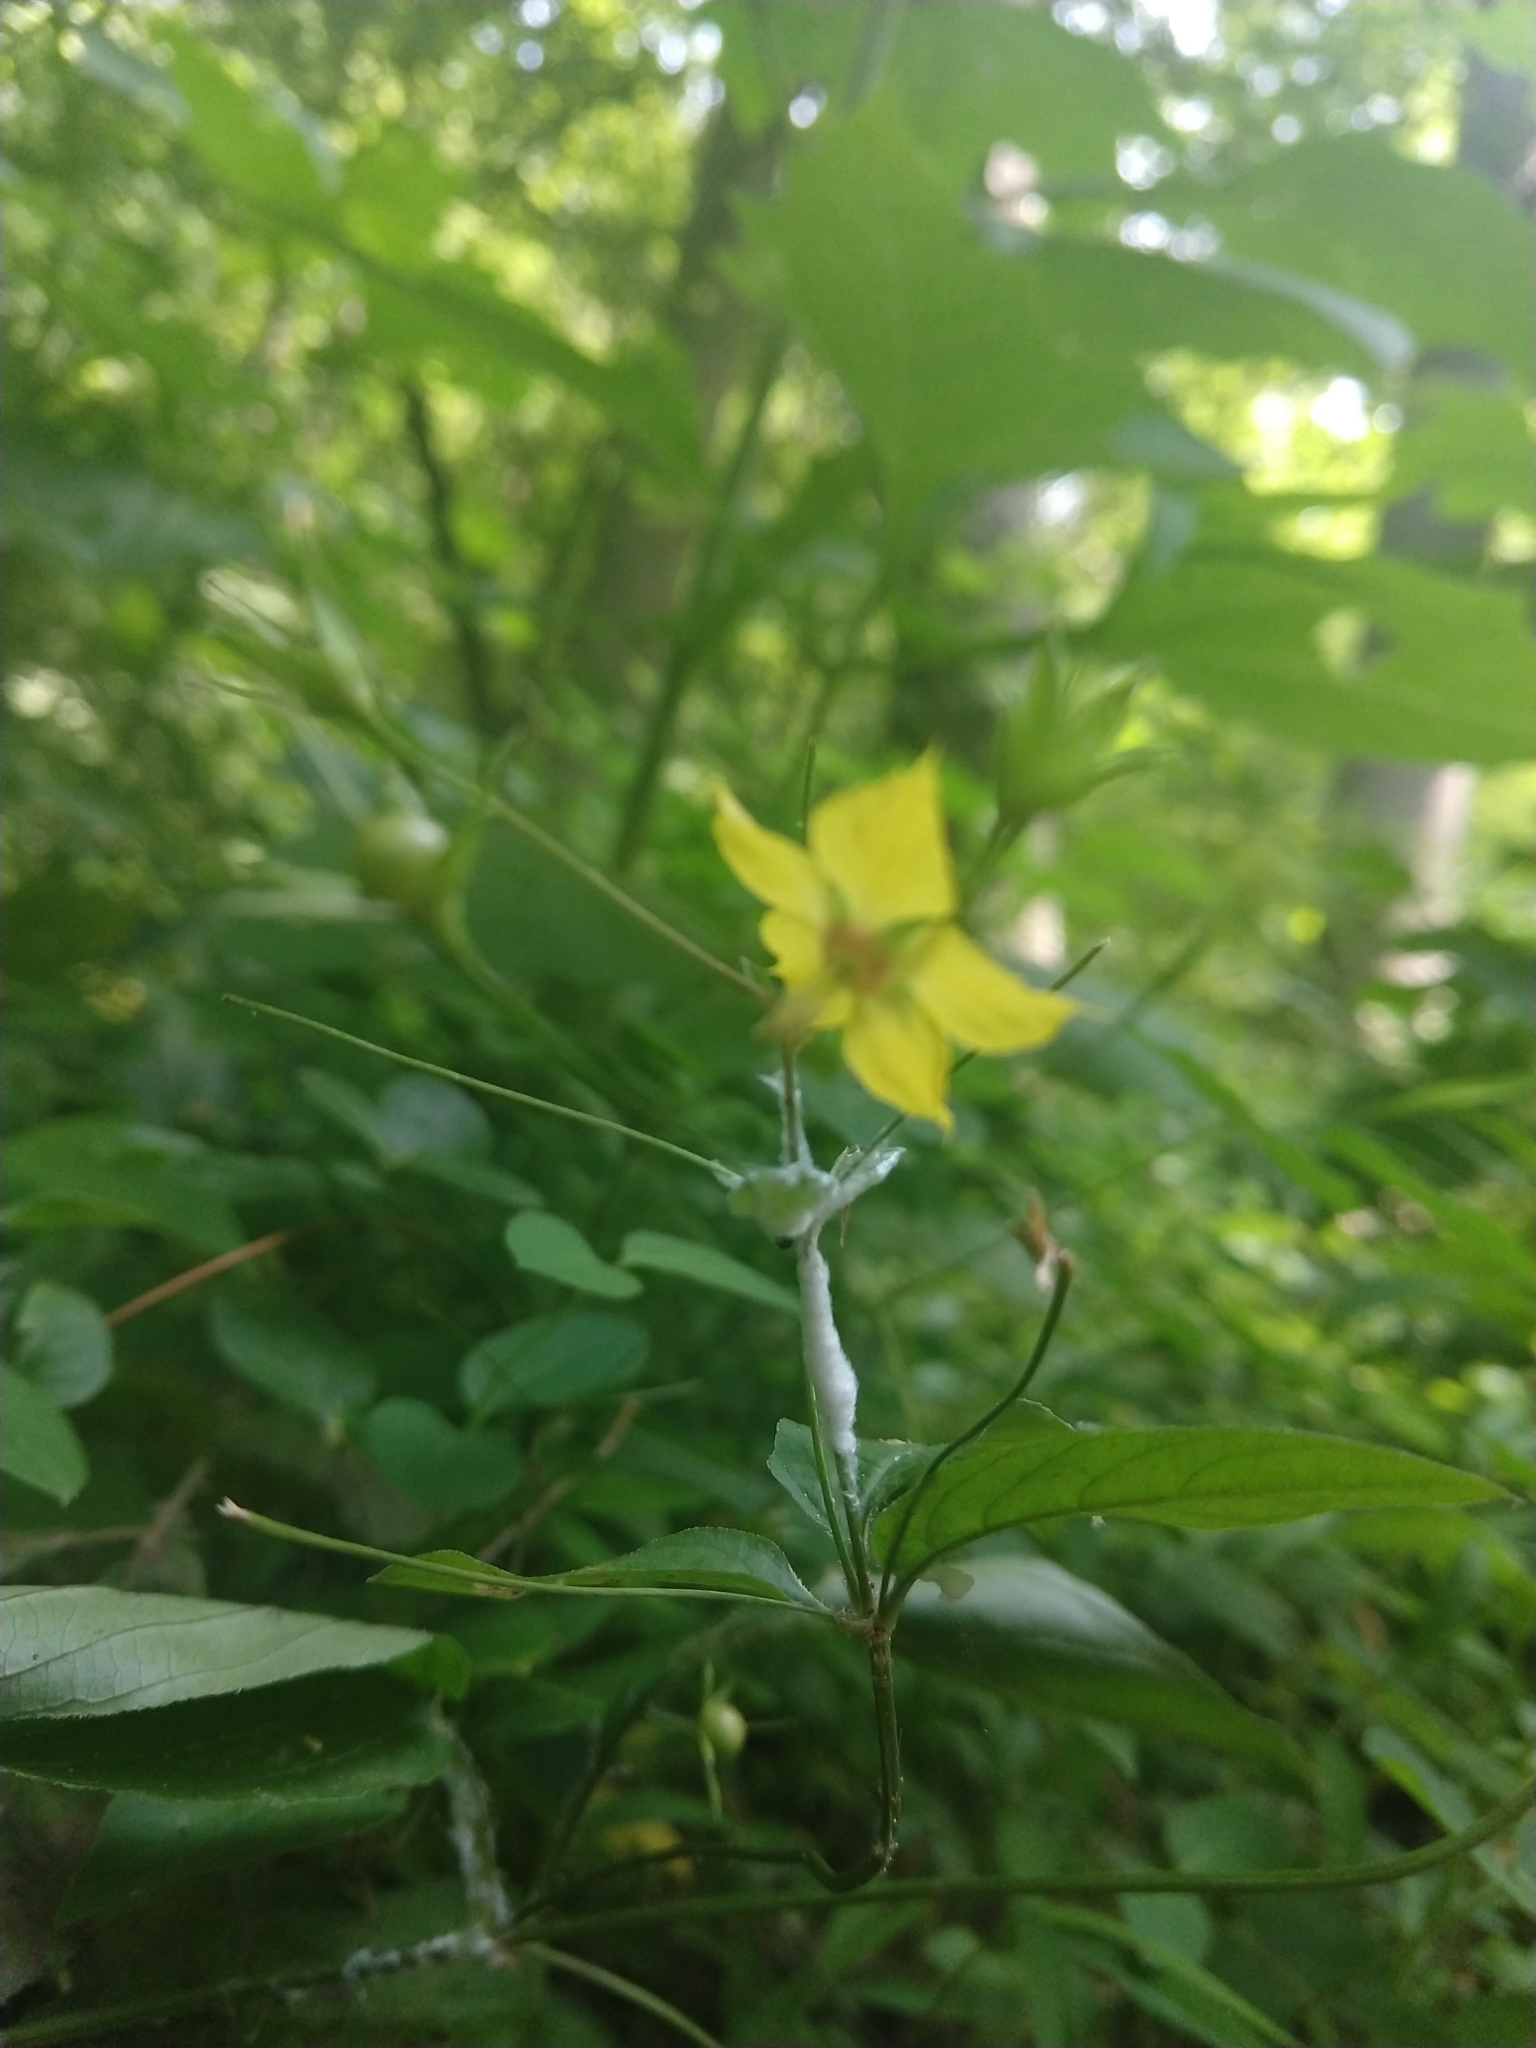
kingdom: Plantae
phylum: Tracheophyta
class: Magnoliopsida
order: Ericales
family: Primulaceae
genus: Lysimachia
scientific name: Lysimachia ciliata
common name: Fringed loosestrife
